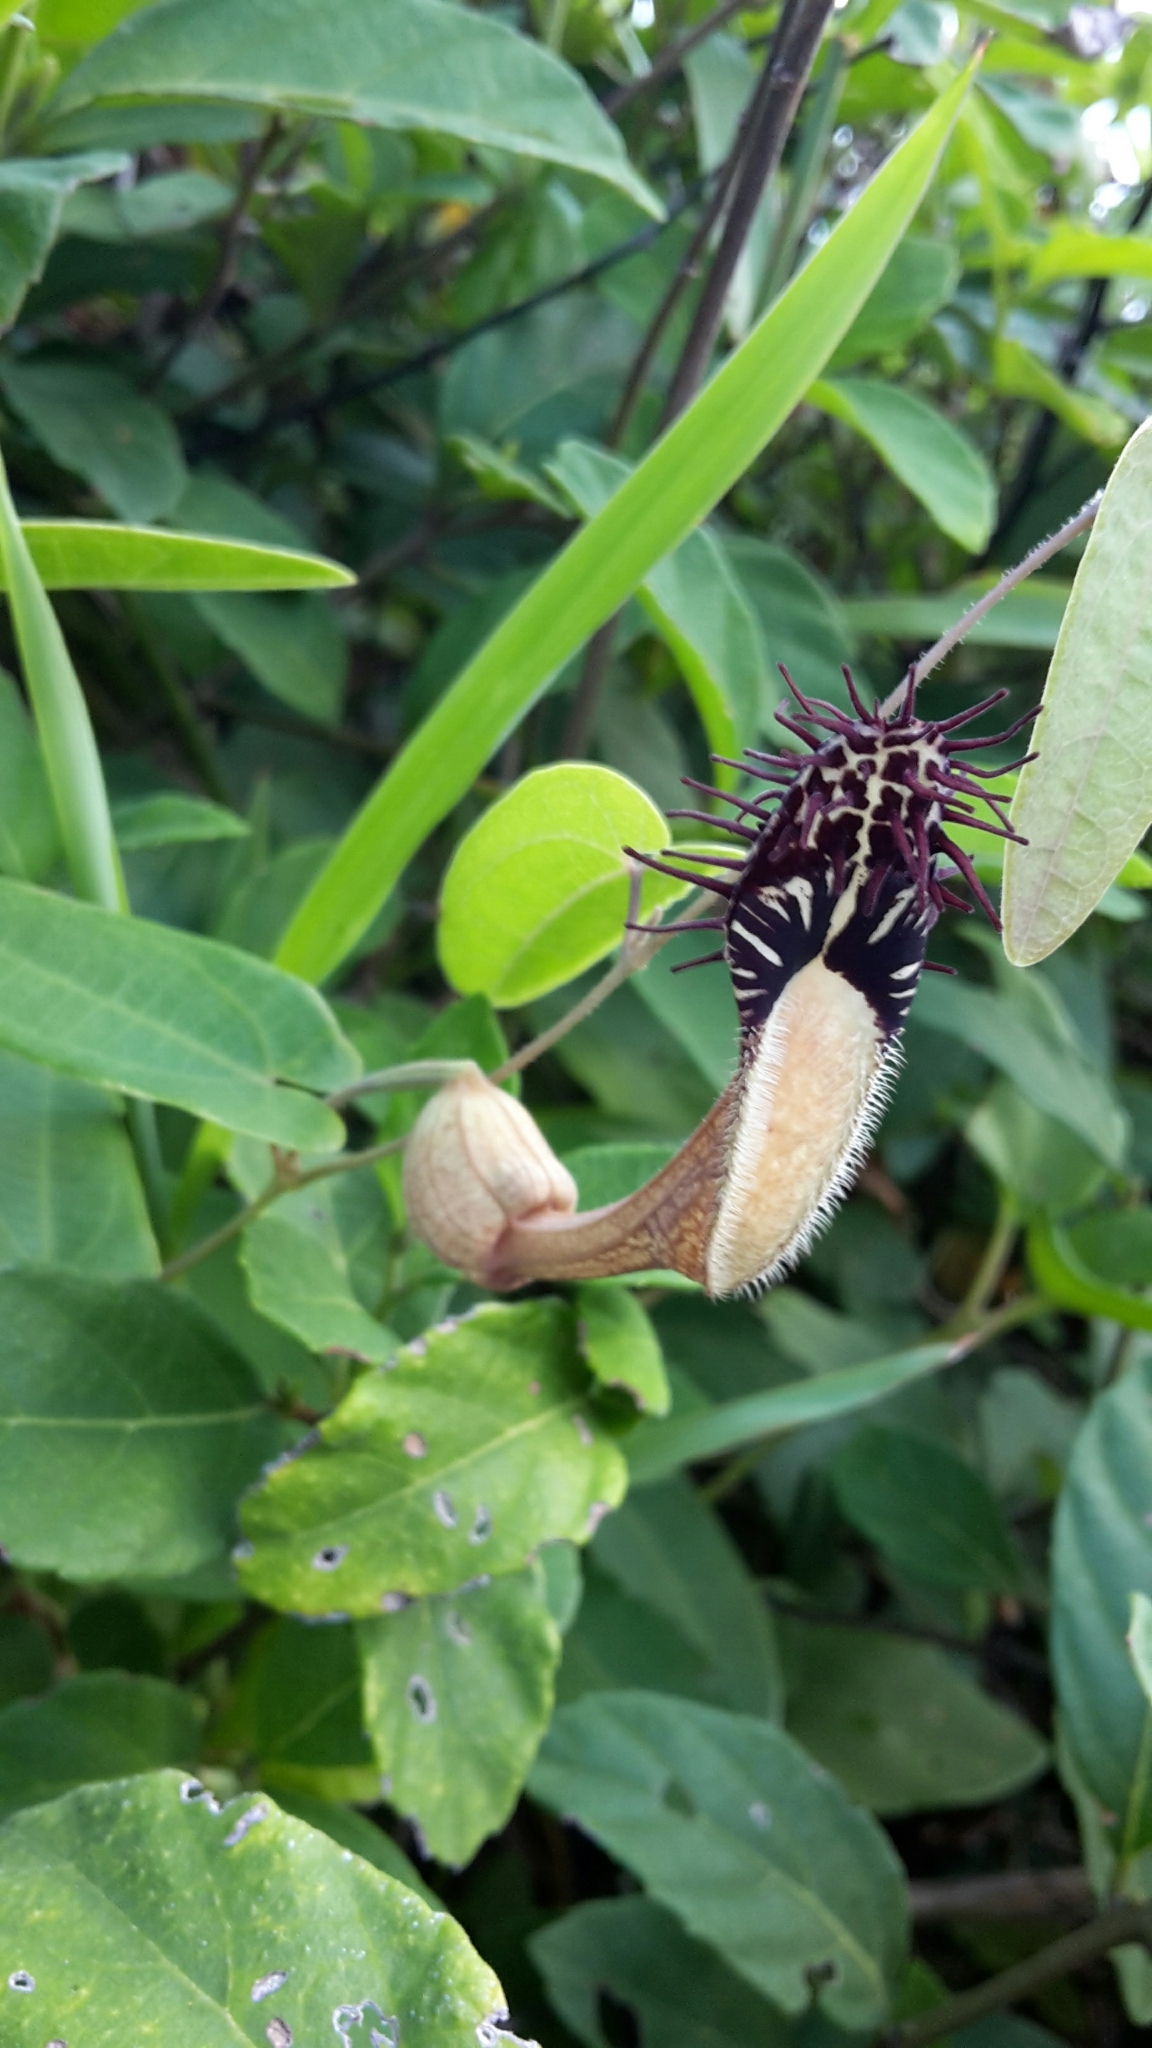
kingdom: Plantae
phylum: Tracheophyta
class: Magnoliopsida
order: Piperales
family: Aristolochiaceae
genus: Aristolochia
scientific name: Aristolochia robertii
